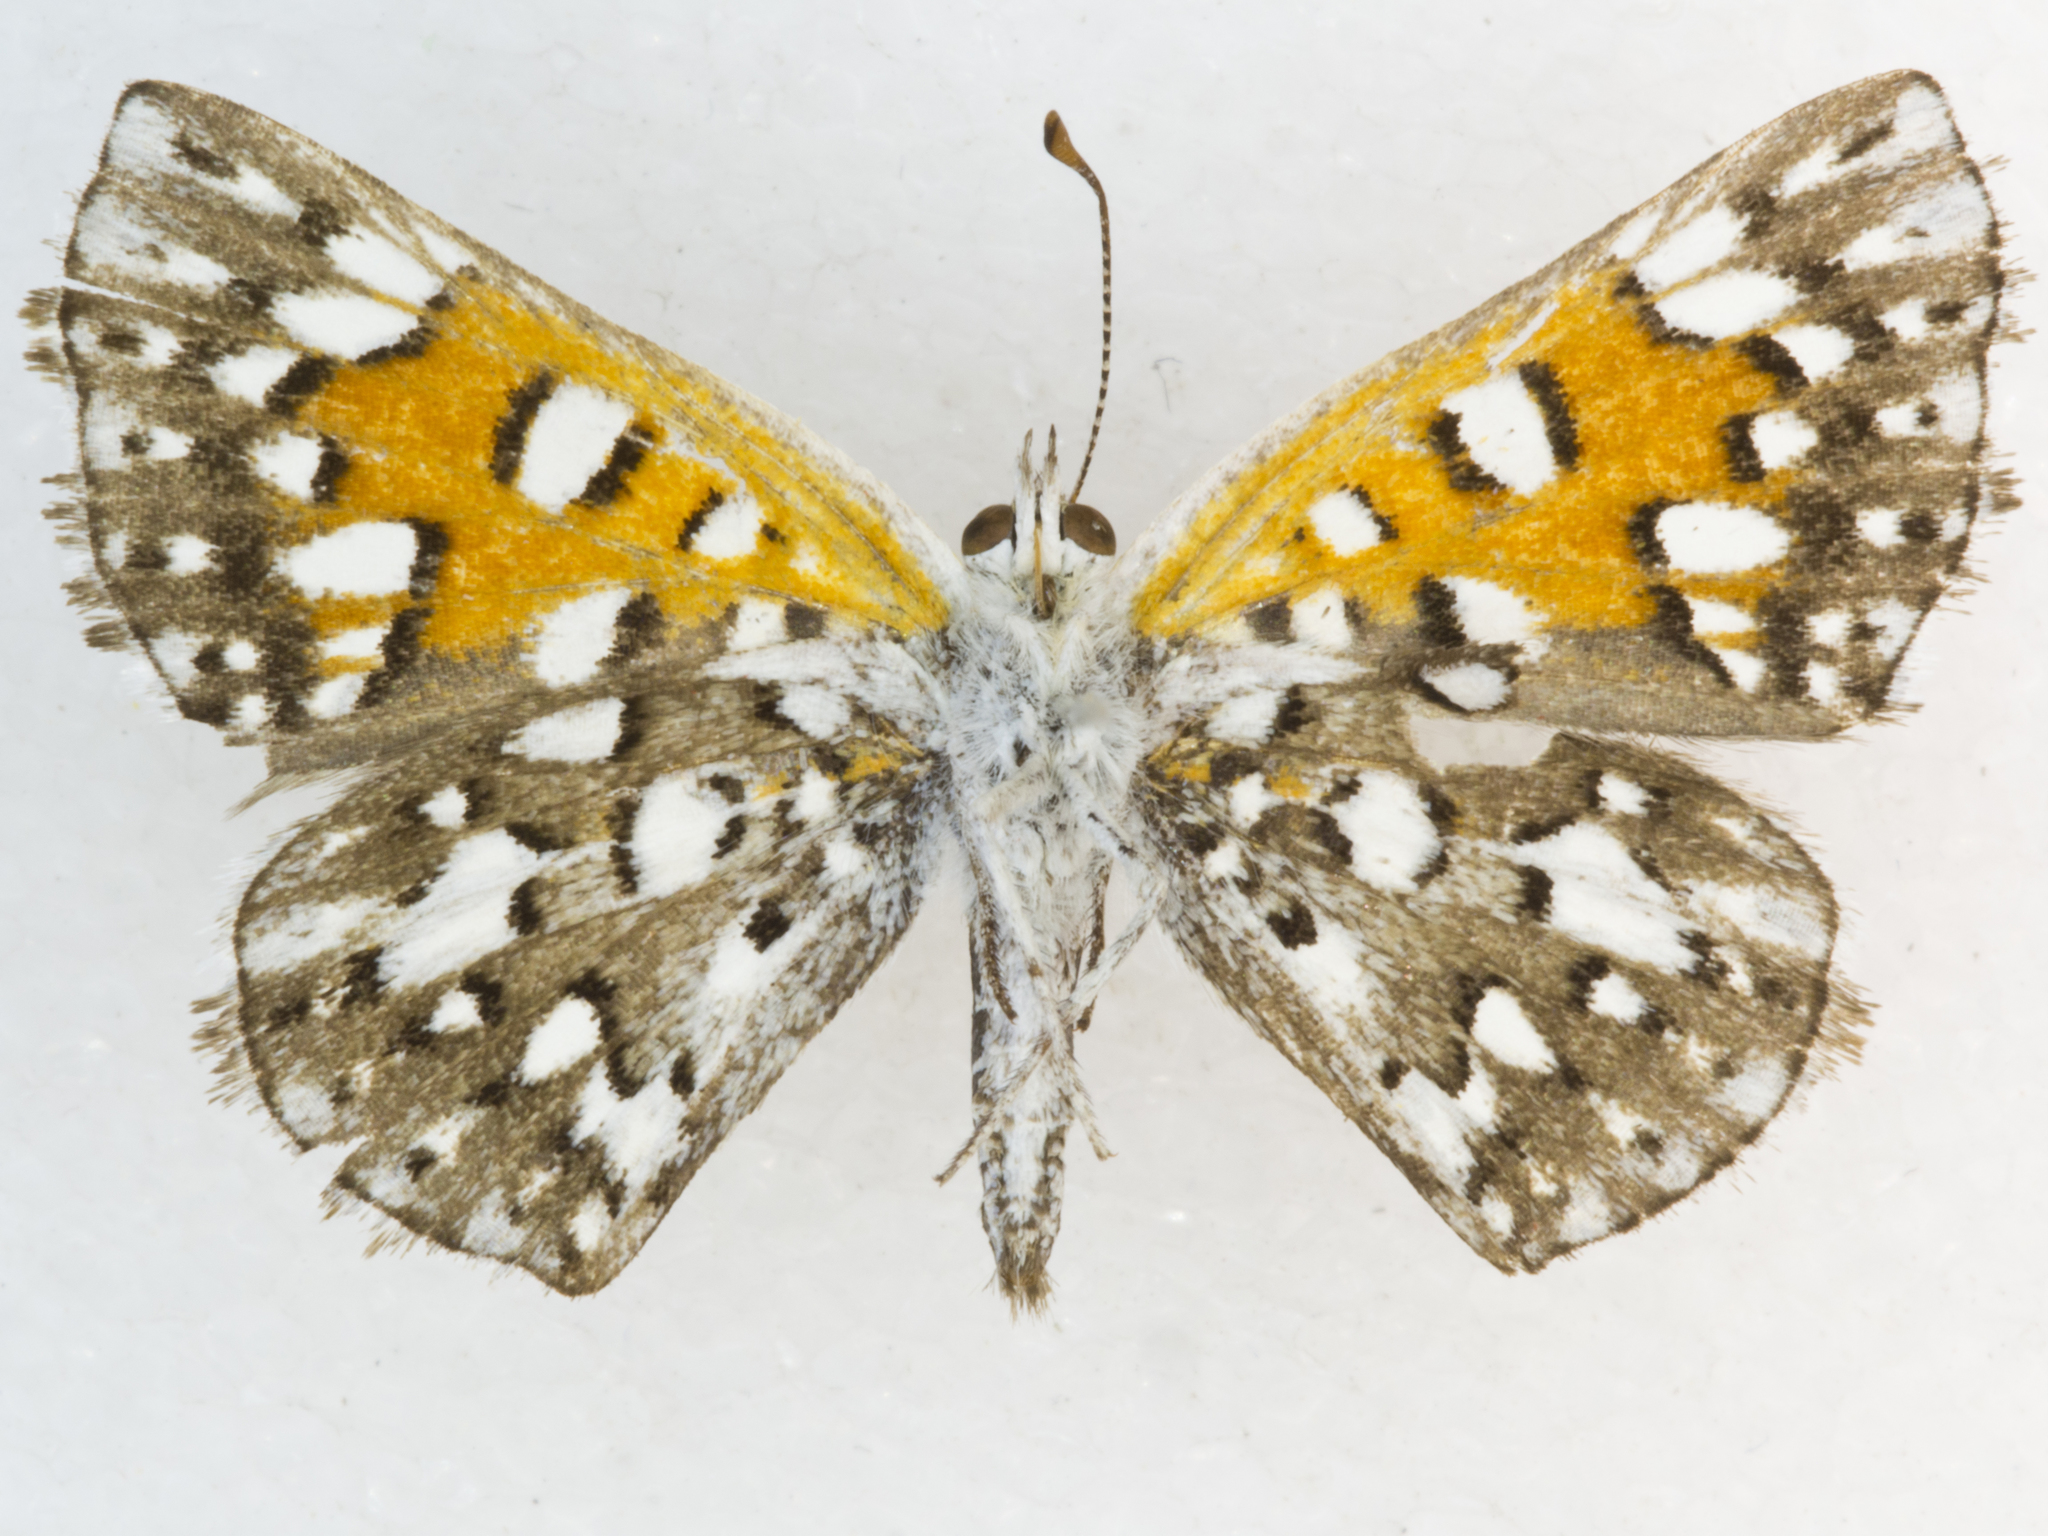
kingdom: Animalia
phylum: Arthropoda
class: Insecta
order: Lepidoptera
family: Riodinidae
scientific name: Riodinidae
